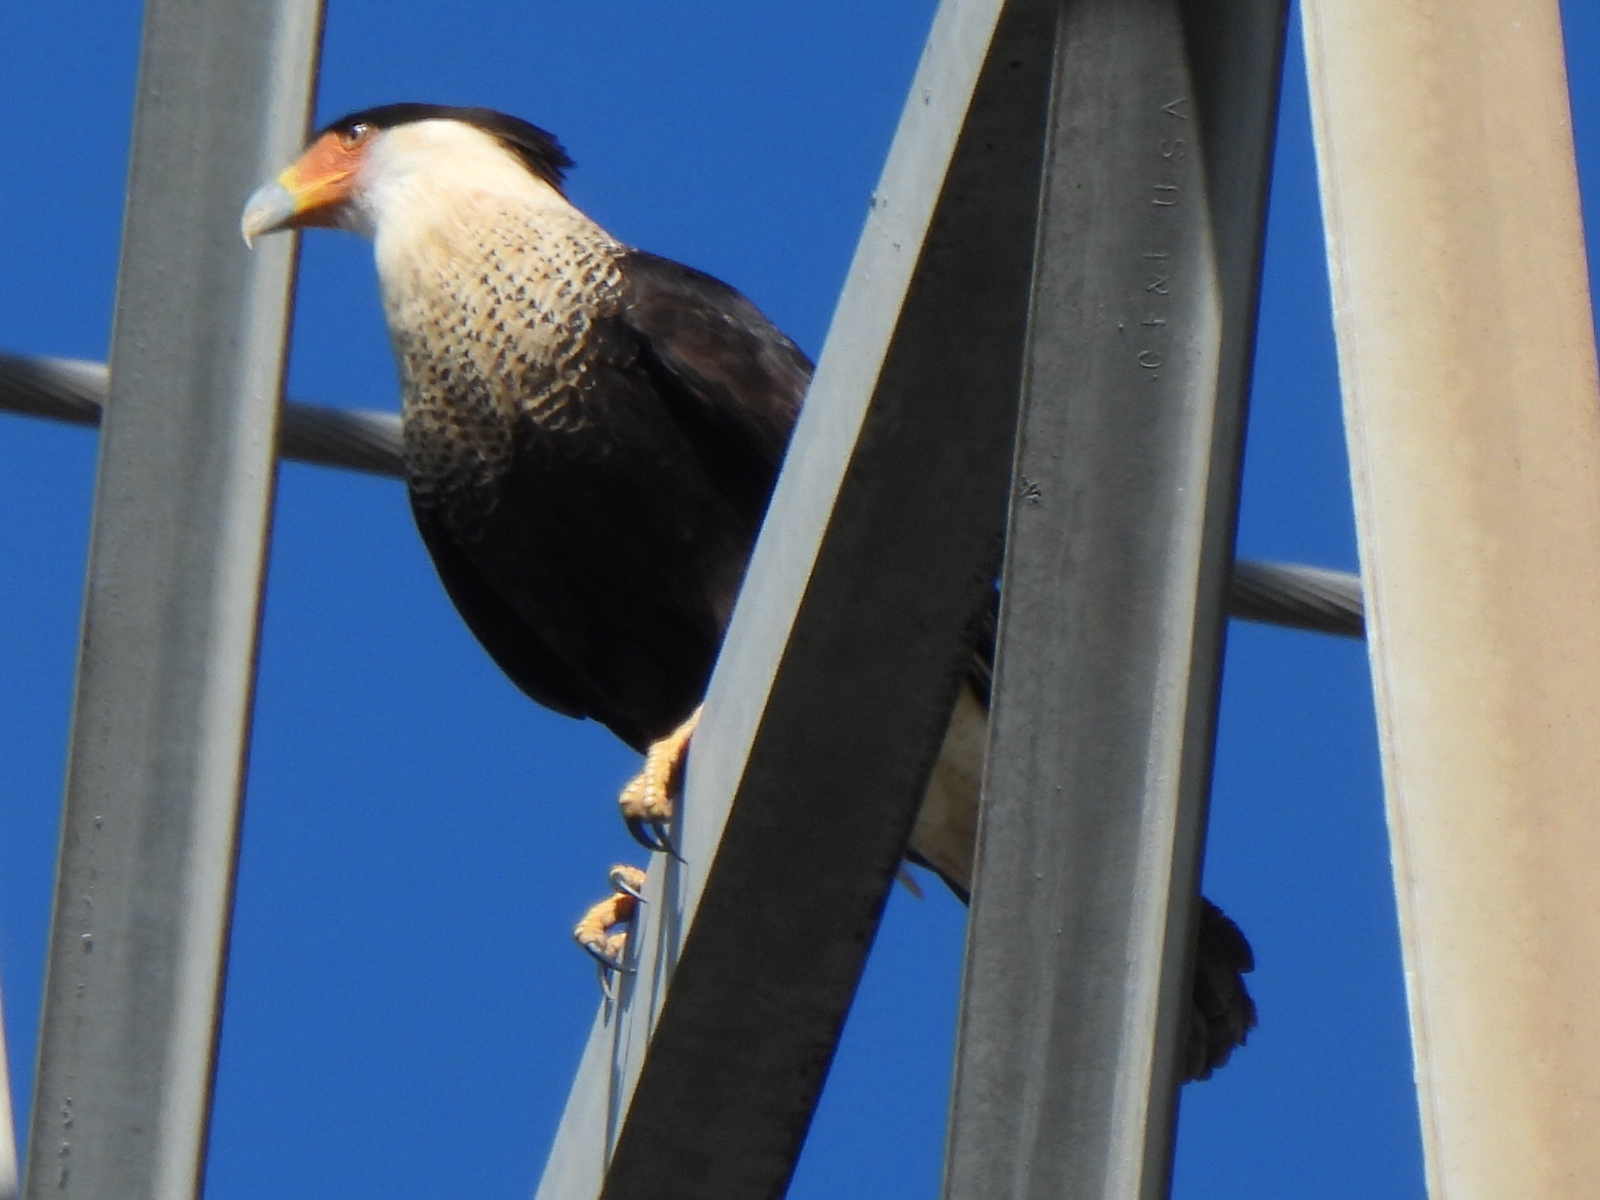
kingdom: Animalia
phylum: Chordata
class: Aves
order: Falconiformes
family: Falconidae
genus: Caracara
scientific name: Caracara plancus
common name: Southern caracara
